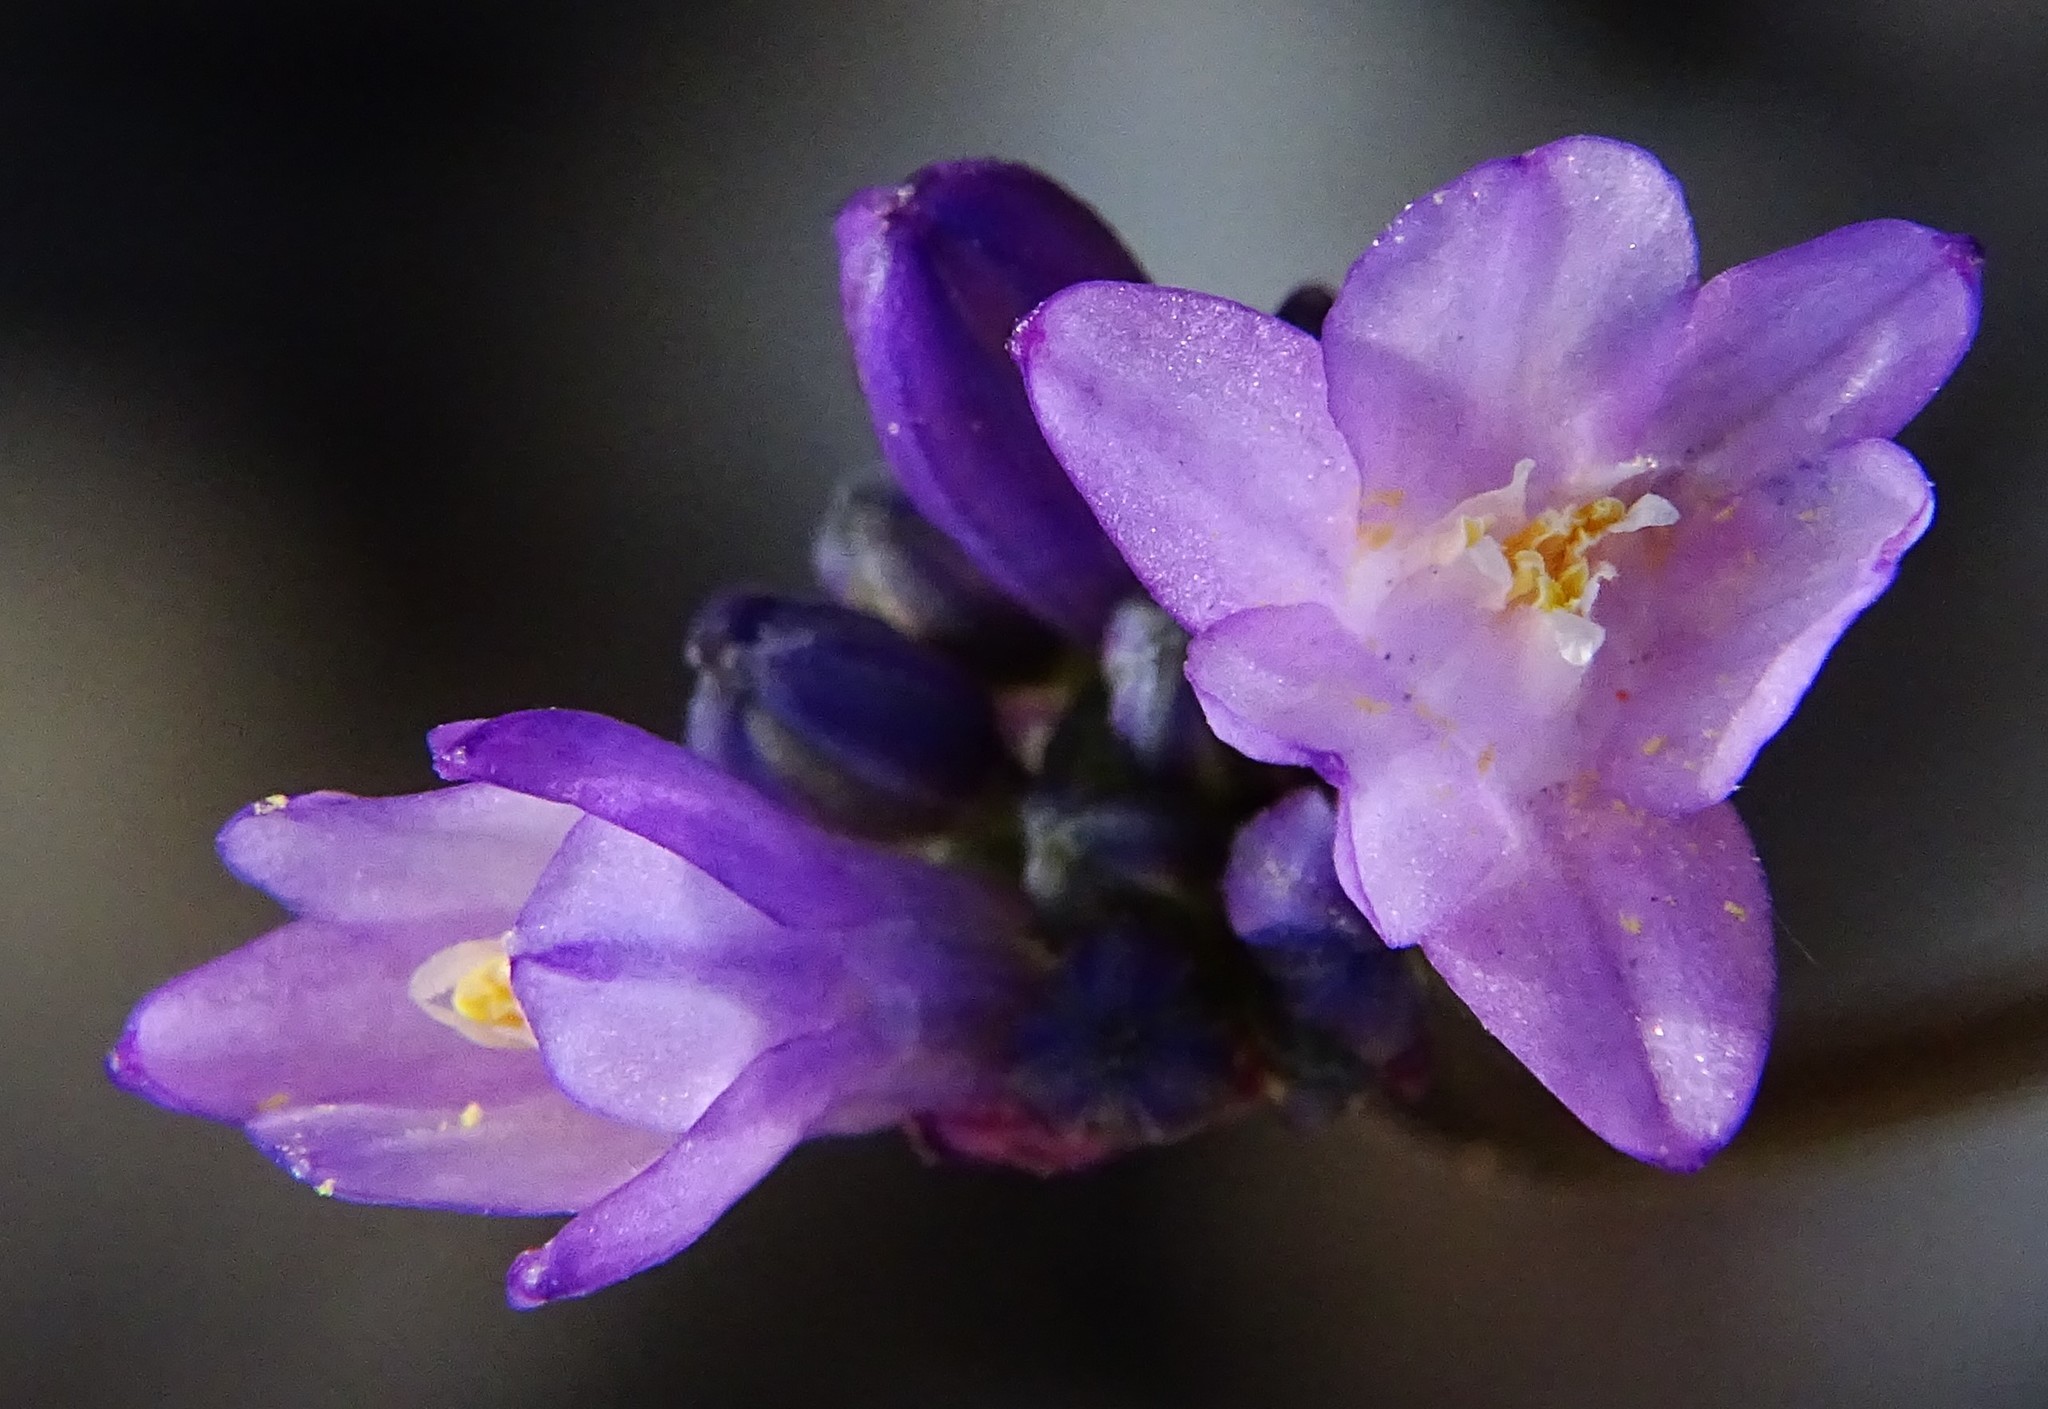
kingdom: Plantae
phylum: Tracheophyta
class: Liliopsida
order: Asparagales
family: Asparagaceae
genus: Dipterostemon
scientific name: Dipterostemon capitatus
